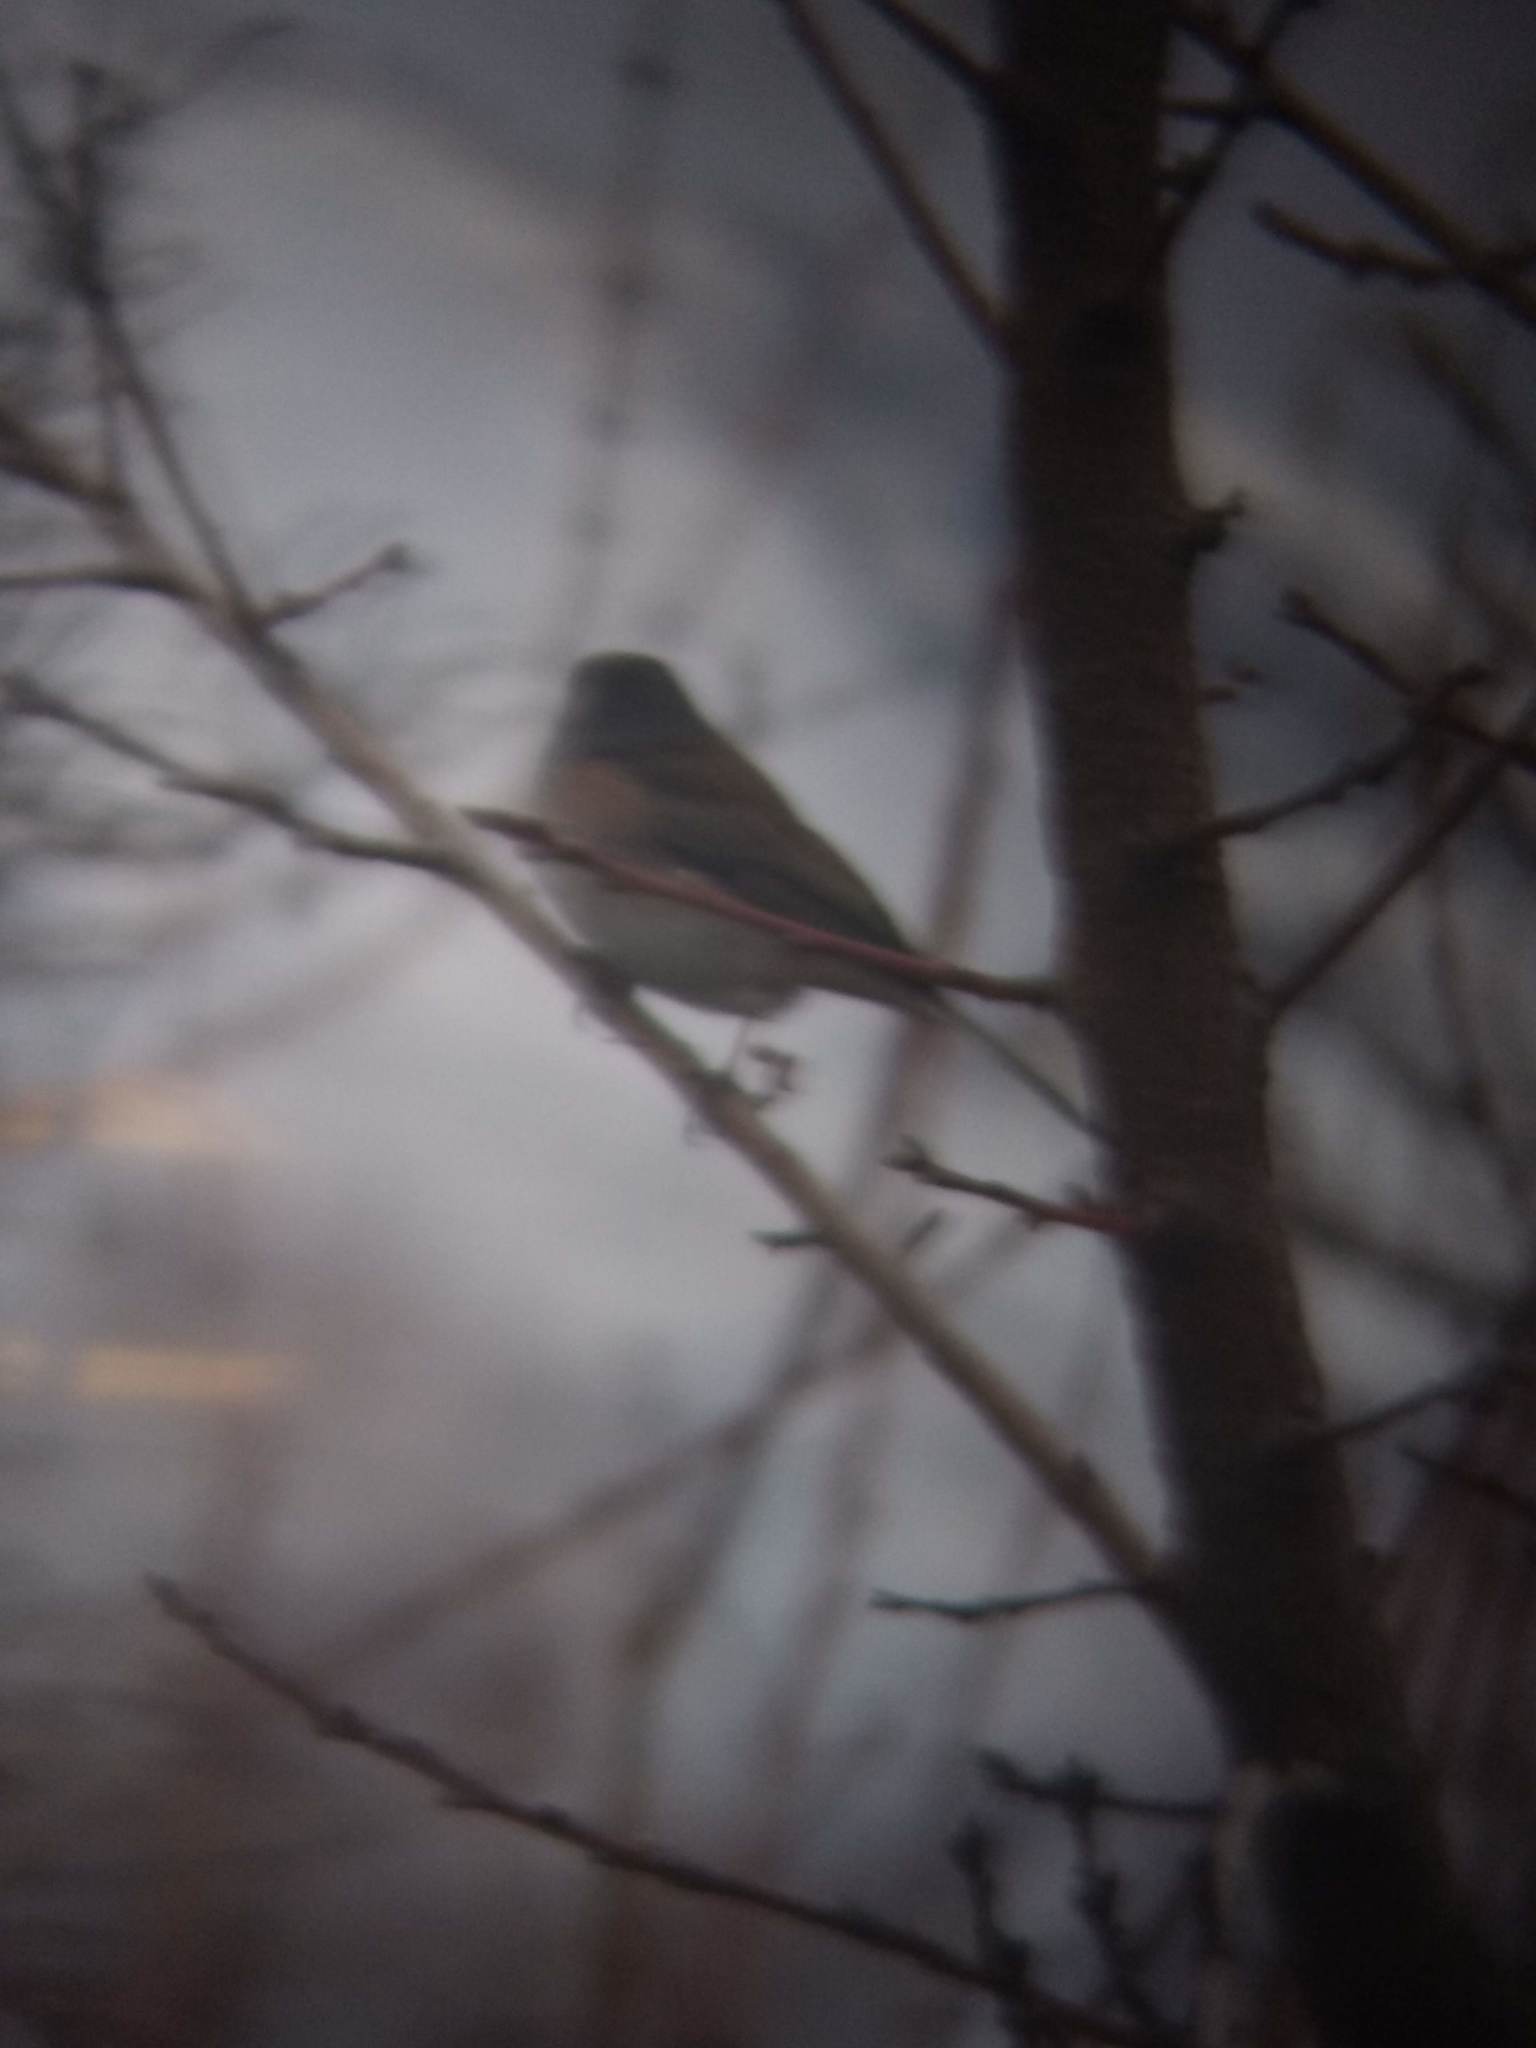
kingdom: Animalia
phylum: Chordata
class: Aves
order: Passeriformes
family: Passerellidae
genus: Junco
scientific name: Junco hyemalis
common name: Dark-eyed junco
